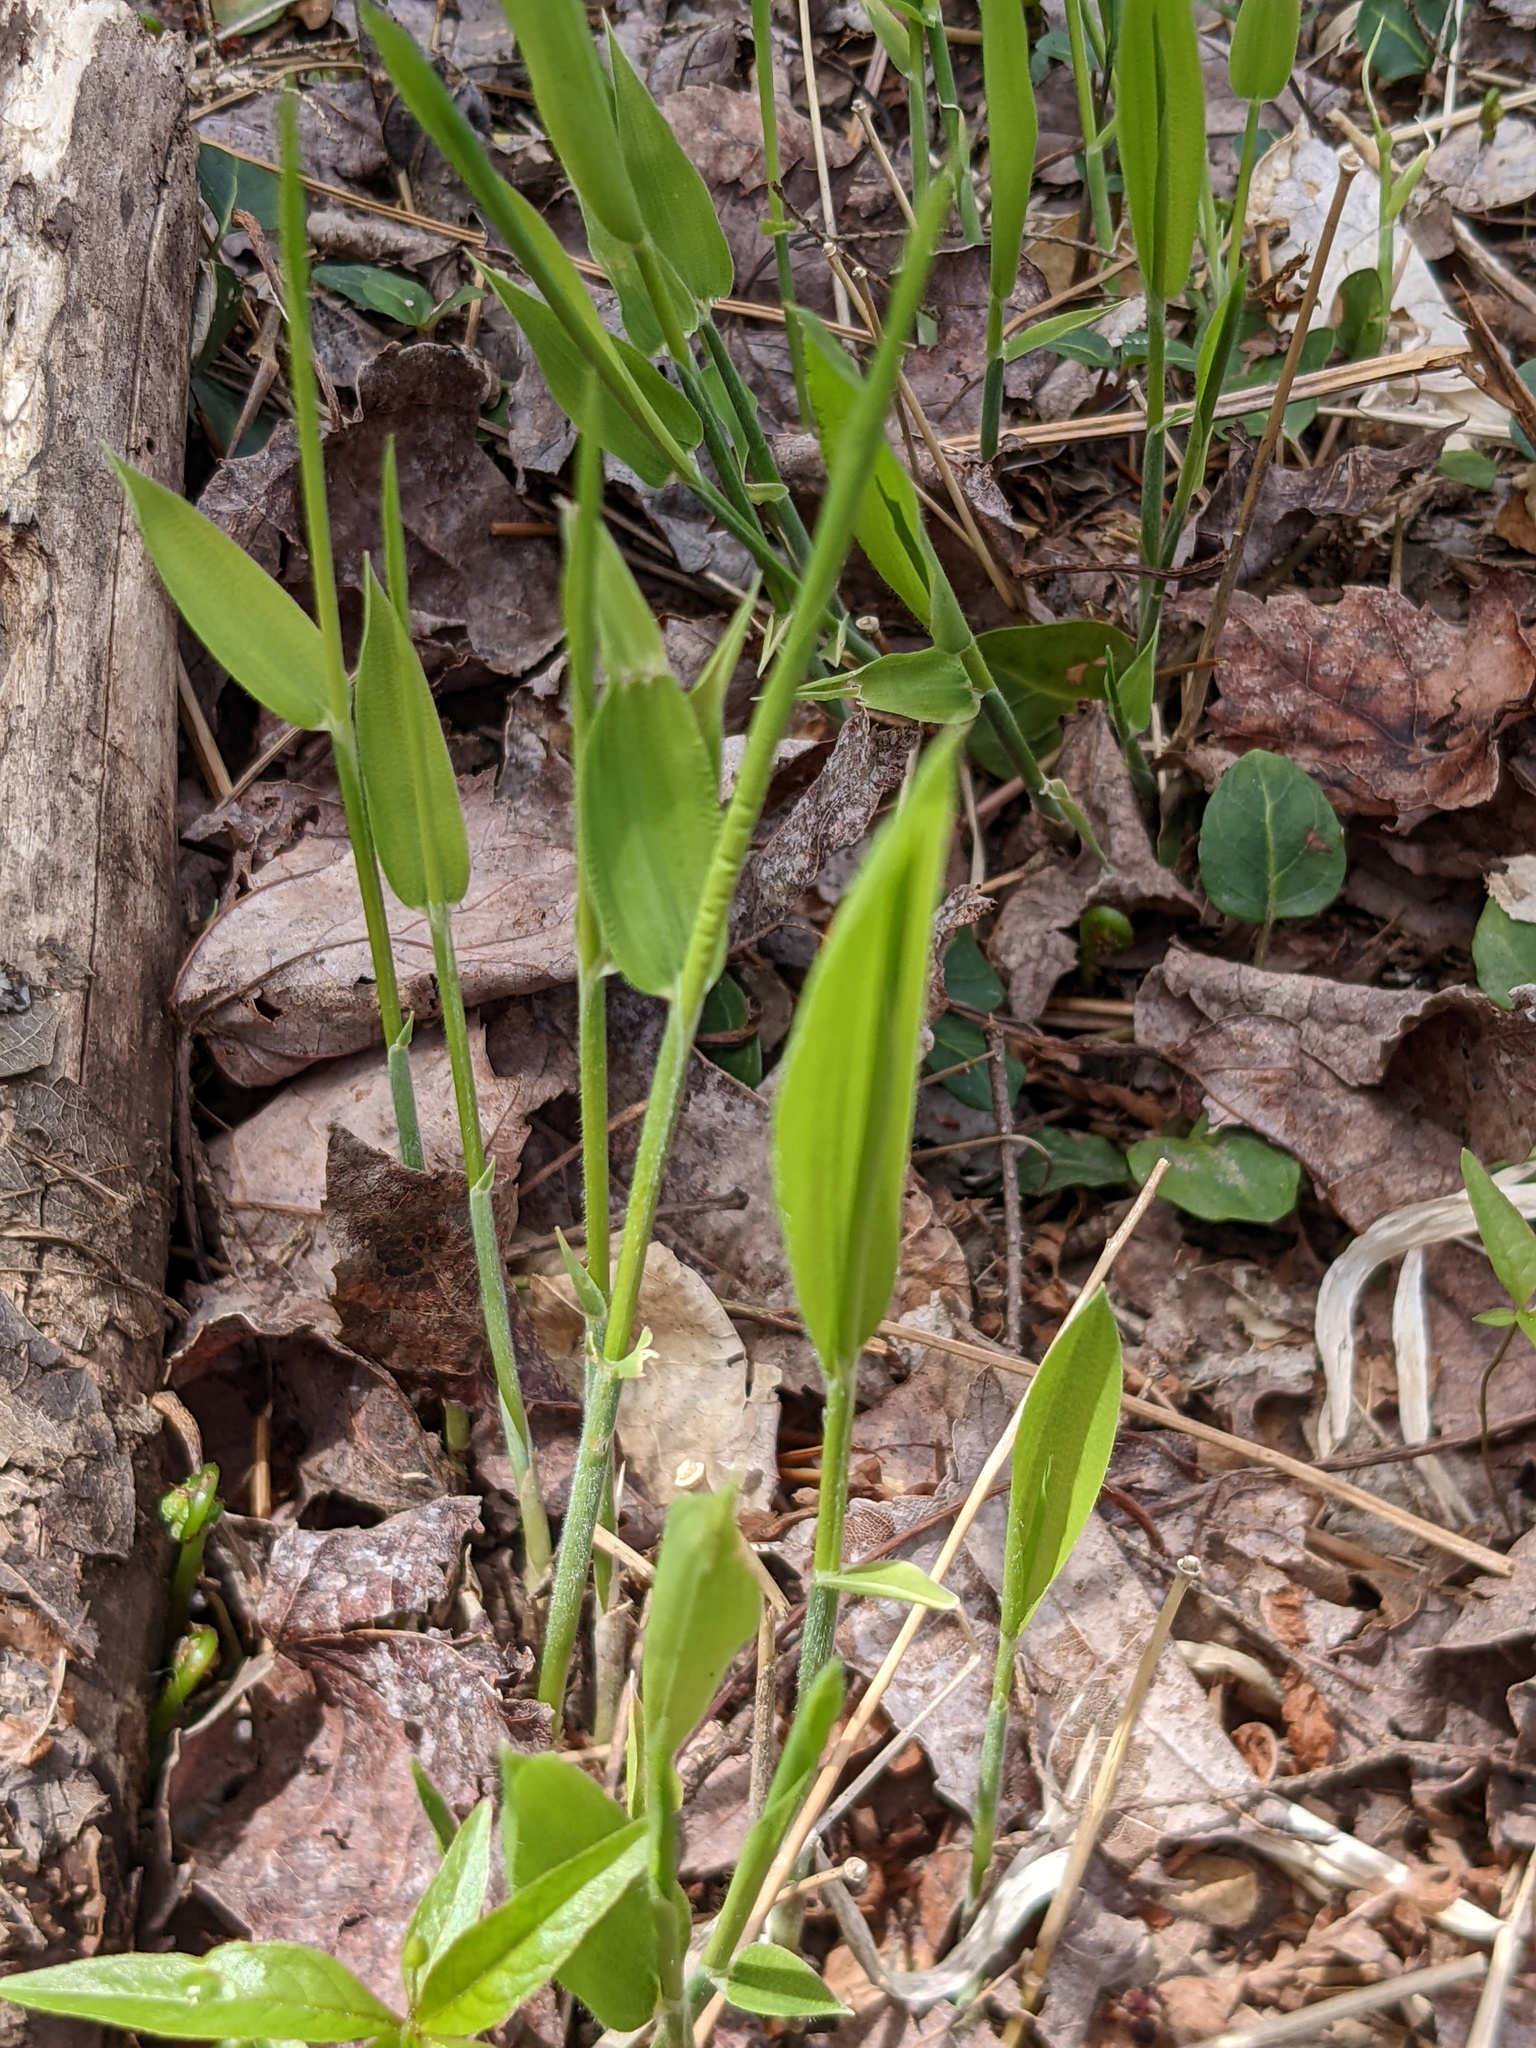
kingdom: Plantae
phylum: Tracheophyta
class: Liliopsida
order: Poales
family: Poaceae
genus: Dichanthelium
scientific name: Dichanthelium clandestinum
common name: Deer-tongue grass
